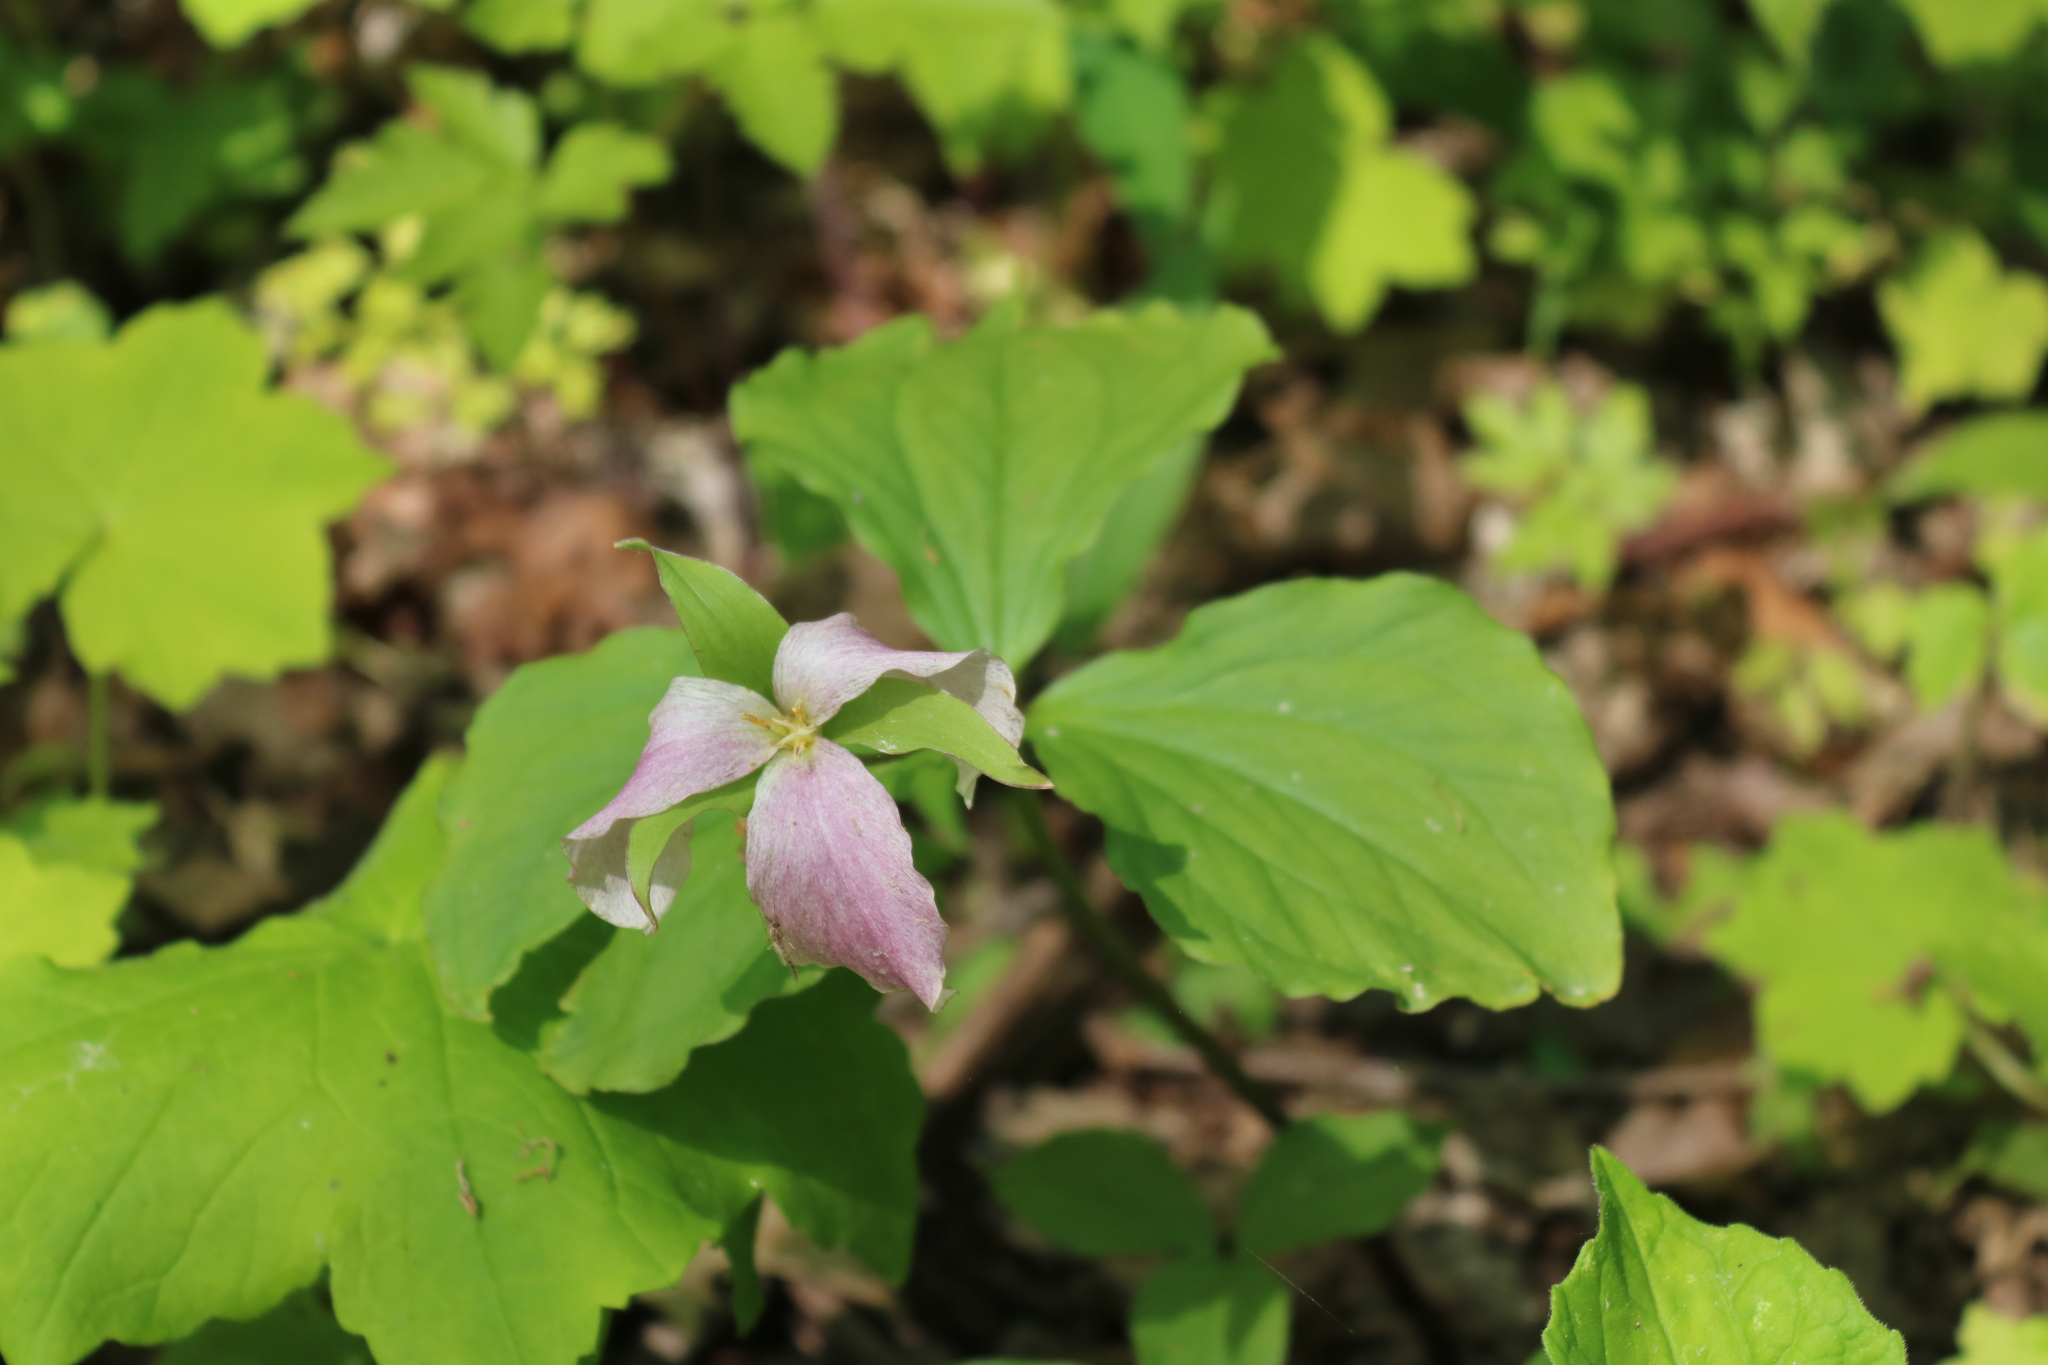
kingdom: Plantae
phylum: Tracheophyta
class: Liliopsida
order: Liliales
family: Melanthiaceae
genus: Trillium
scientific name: Trillium grandiflorum
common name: Great white trillium
